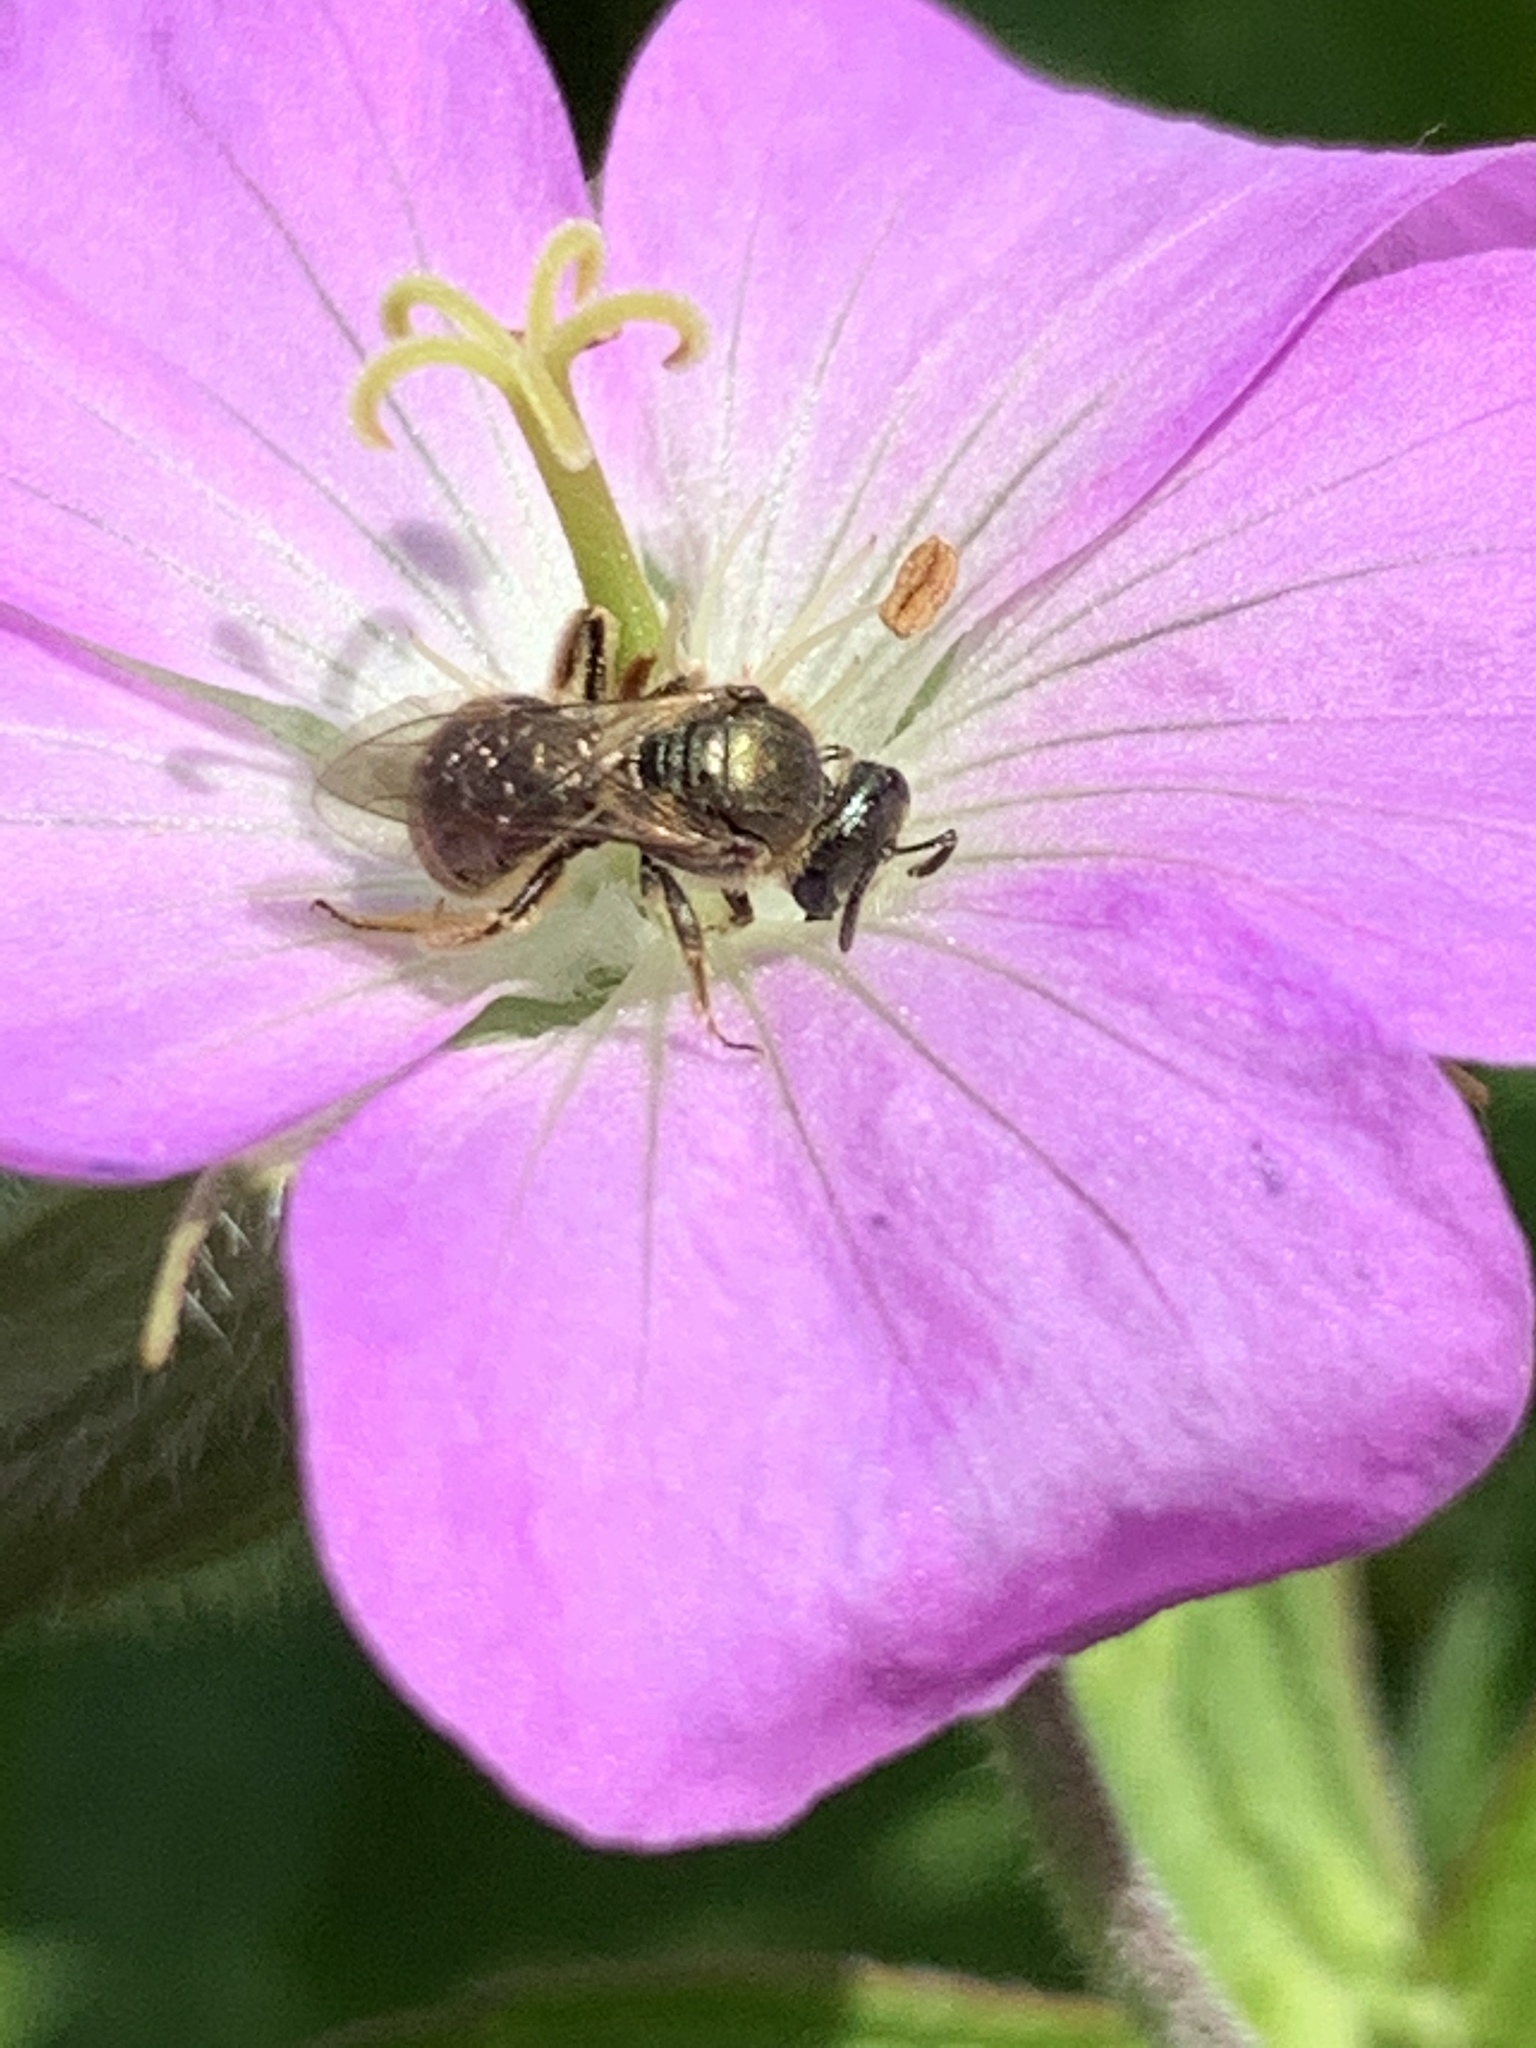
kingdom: Animalia
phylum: Arthropoda
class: Insecta
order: Hymenoptera
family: Halictidae
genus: Dialictus
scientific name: Dialictus
